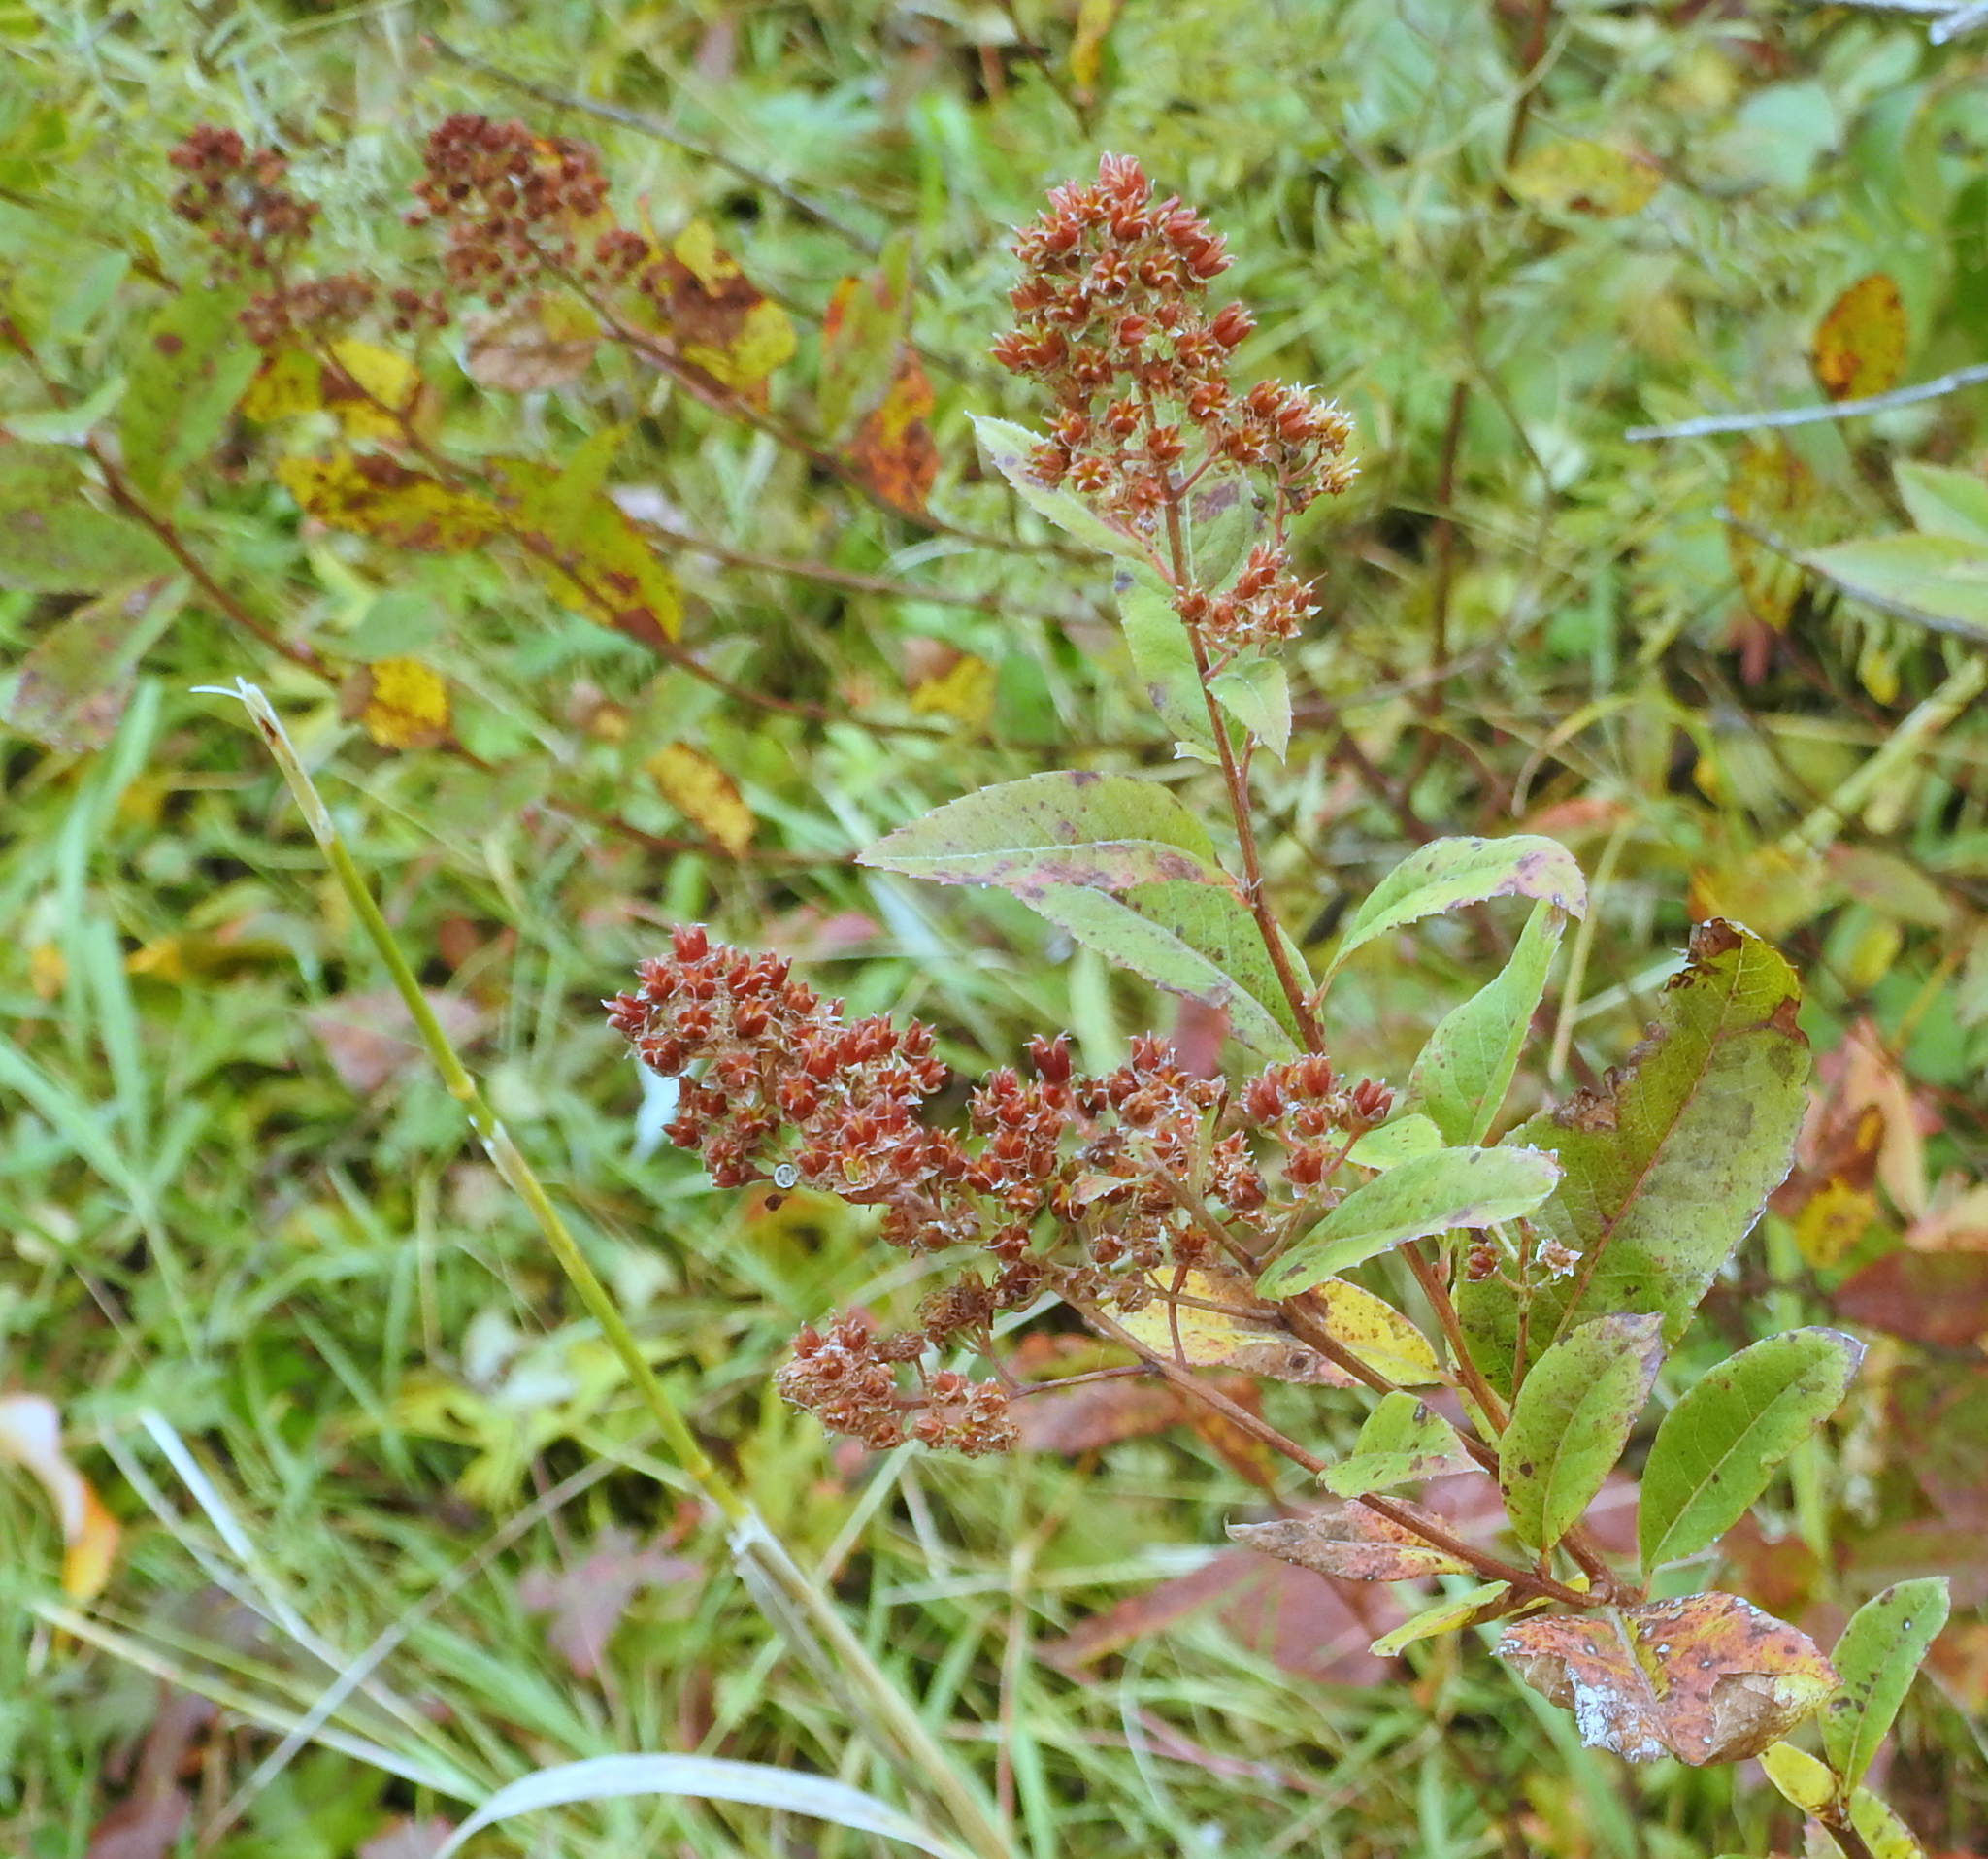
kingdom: Plantae
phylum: Tracheophyta
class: Magnoliopsida
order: Rosales
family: Rosaceae
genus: Spiraea
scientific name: Spiraea salicifolia
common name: Bridewort
